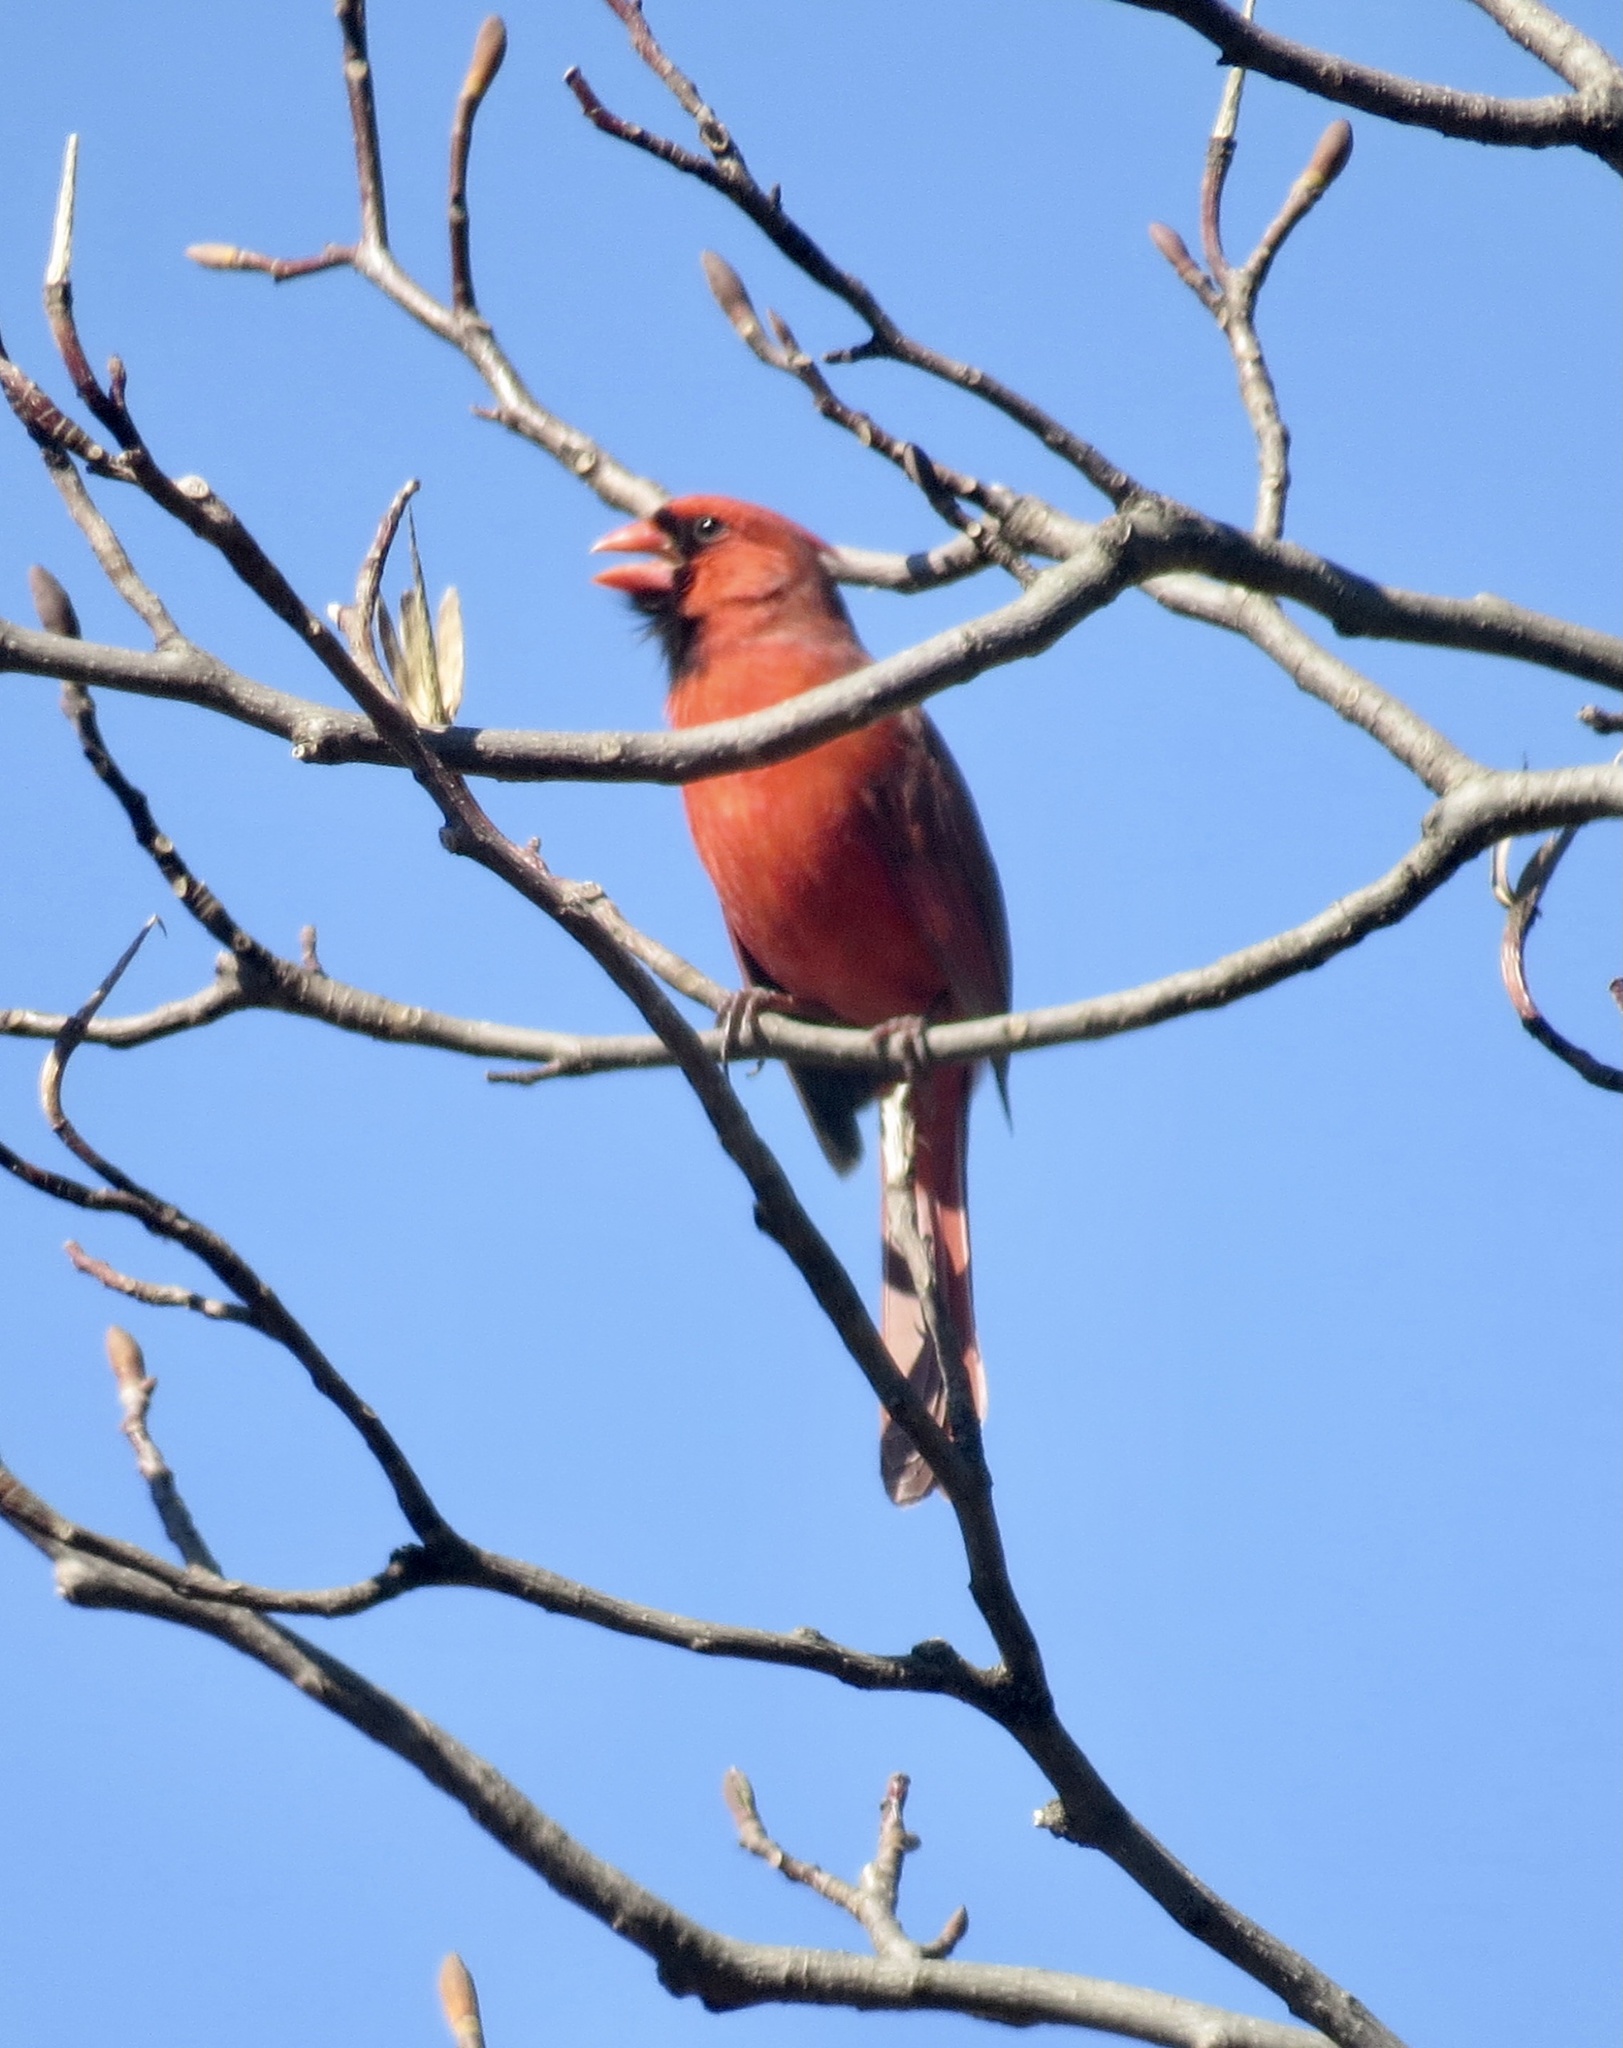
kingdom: Animalia
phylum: Chordata
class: Aves
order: Passeriformes
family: Cardinalidae
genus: Cardinalis
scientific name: Cardinalis cardinalis
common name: Northern cardinal
